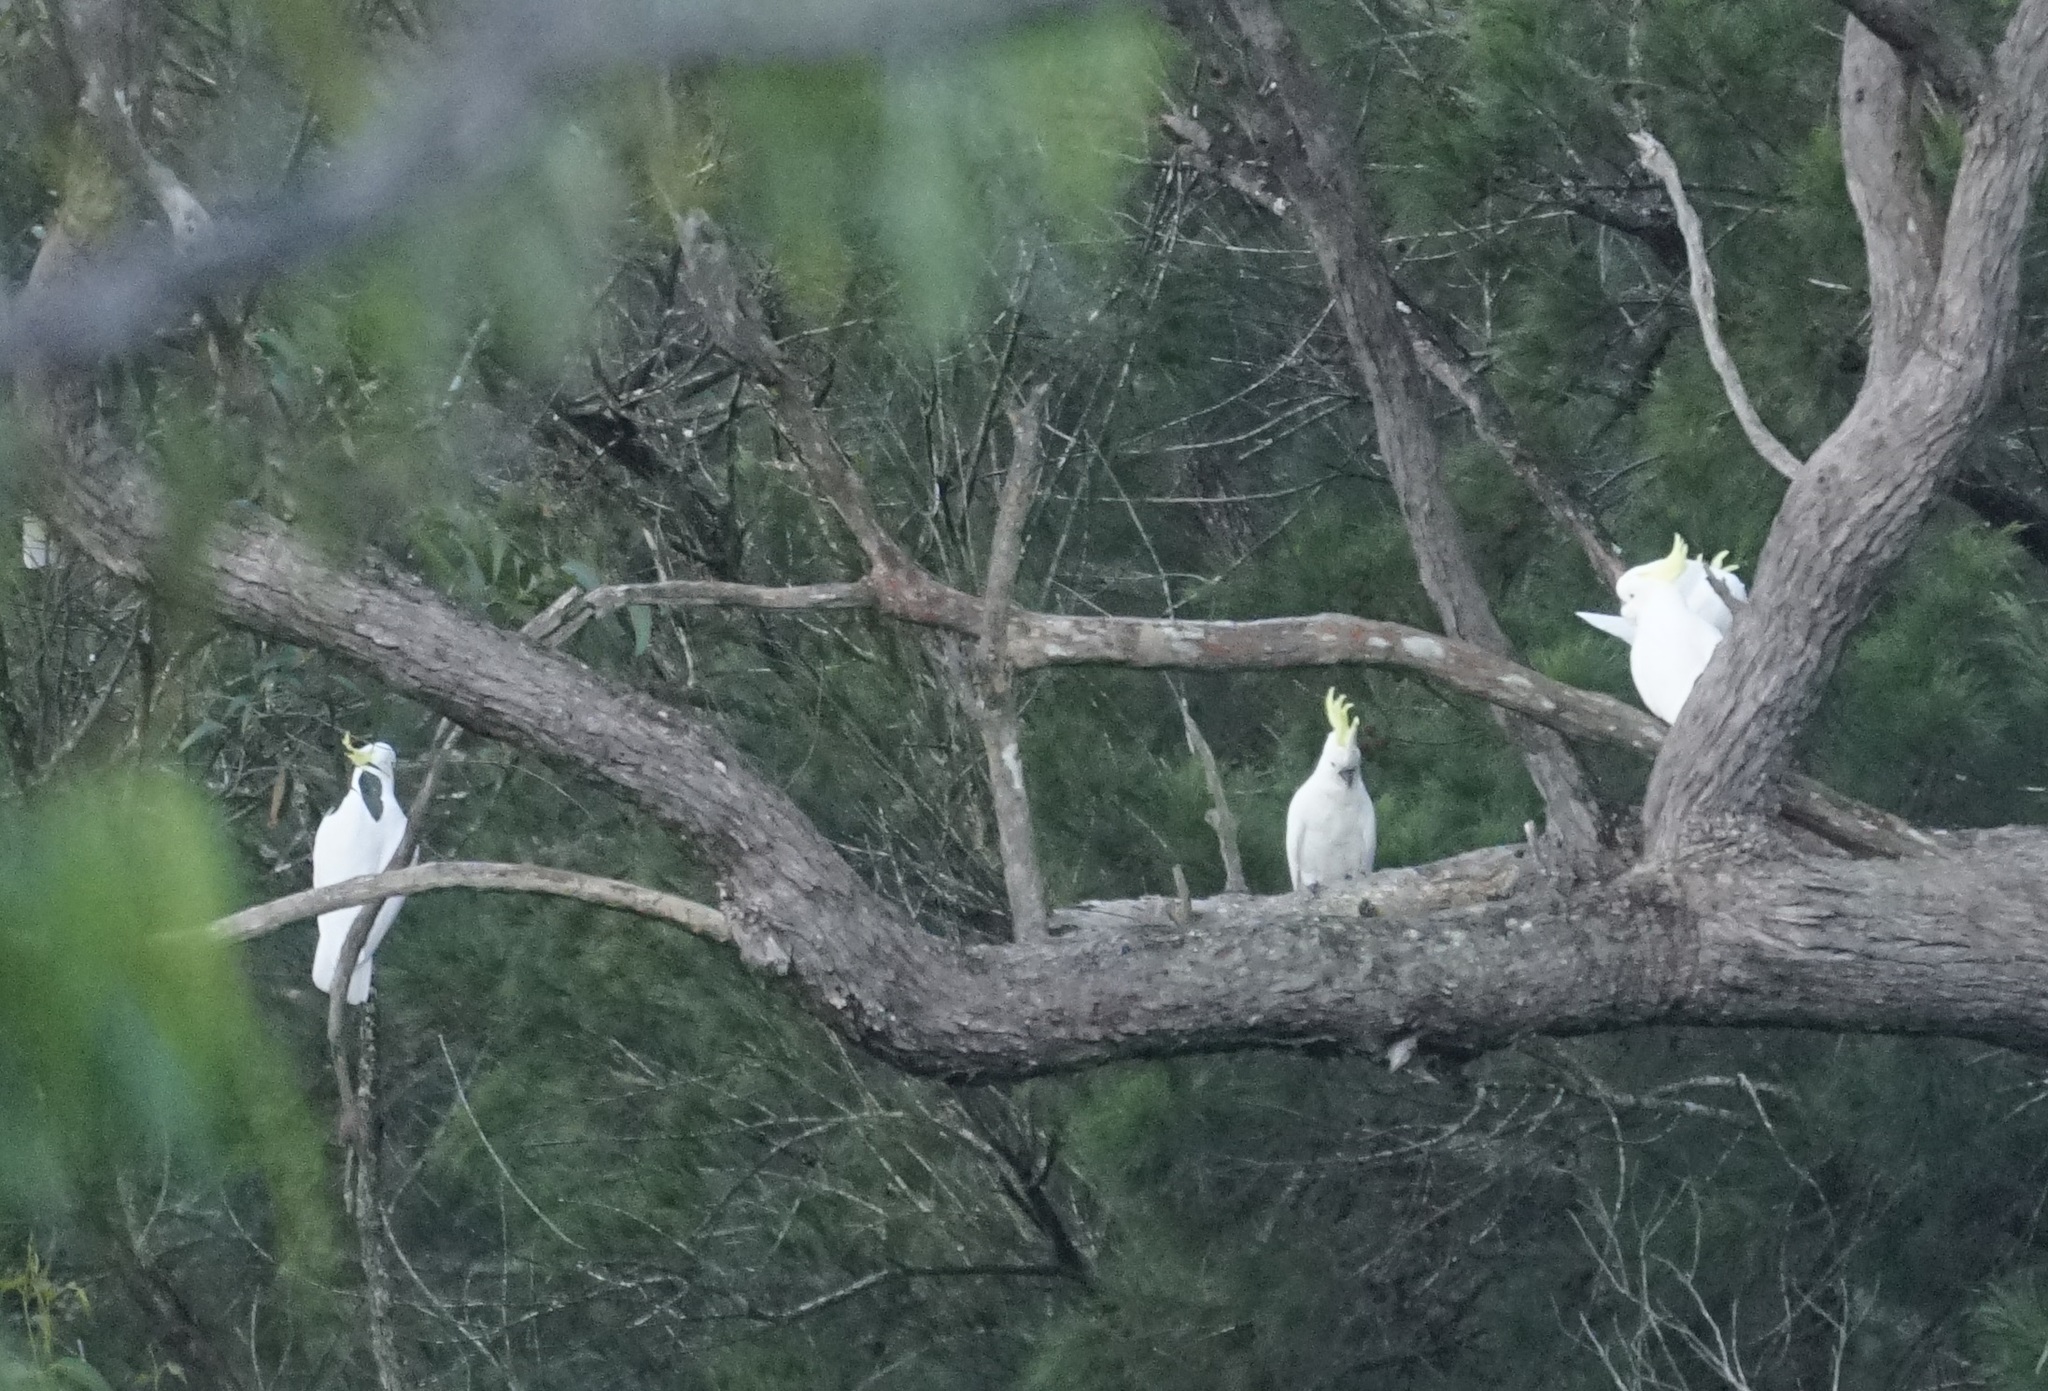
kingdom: Animalia
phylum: Chordata
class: Aves
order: Psittaciformes
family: Psittacidae
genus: Cacatua
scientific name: Cacatua galerita
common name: Sulphur-crested cockatoo
